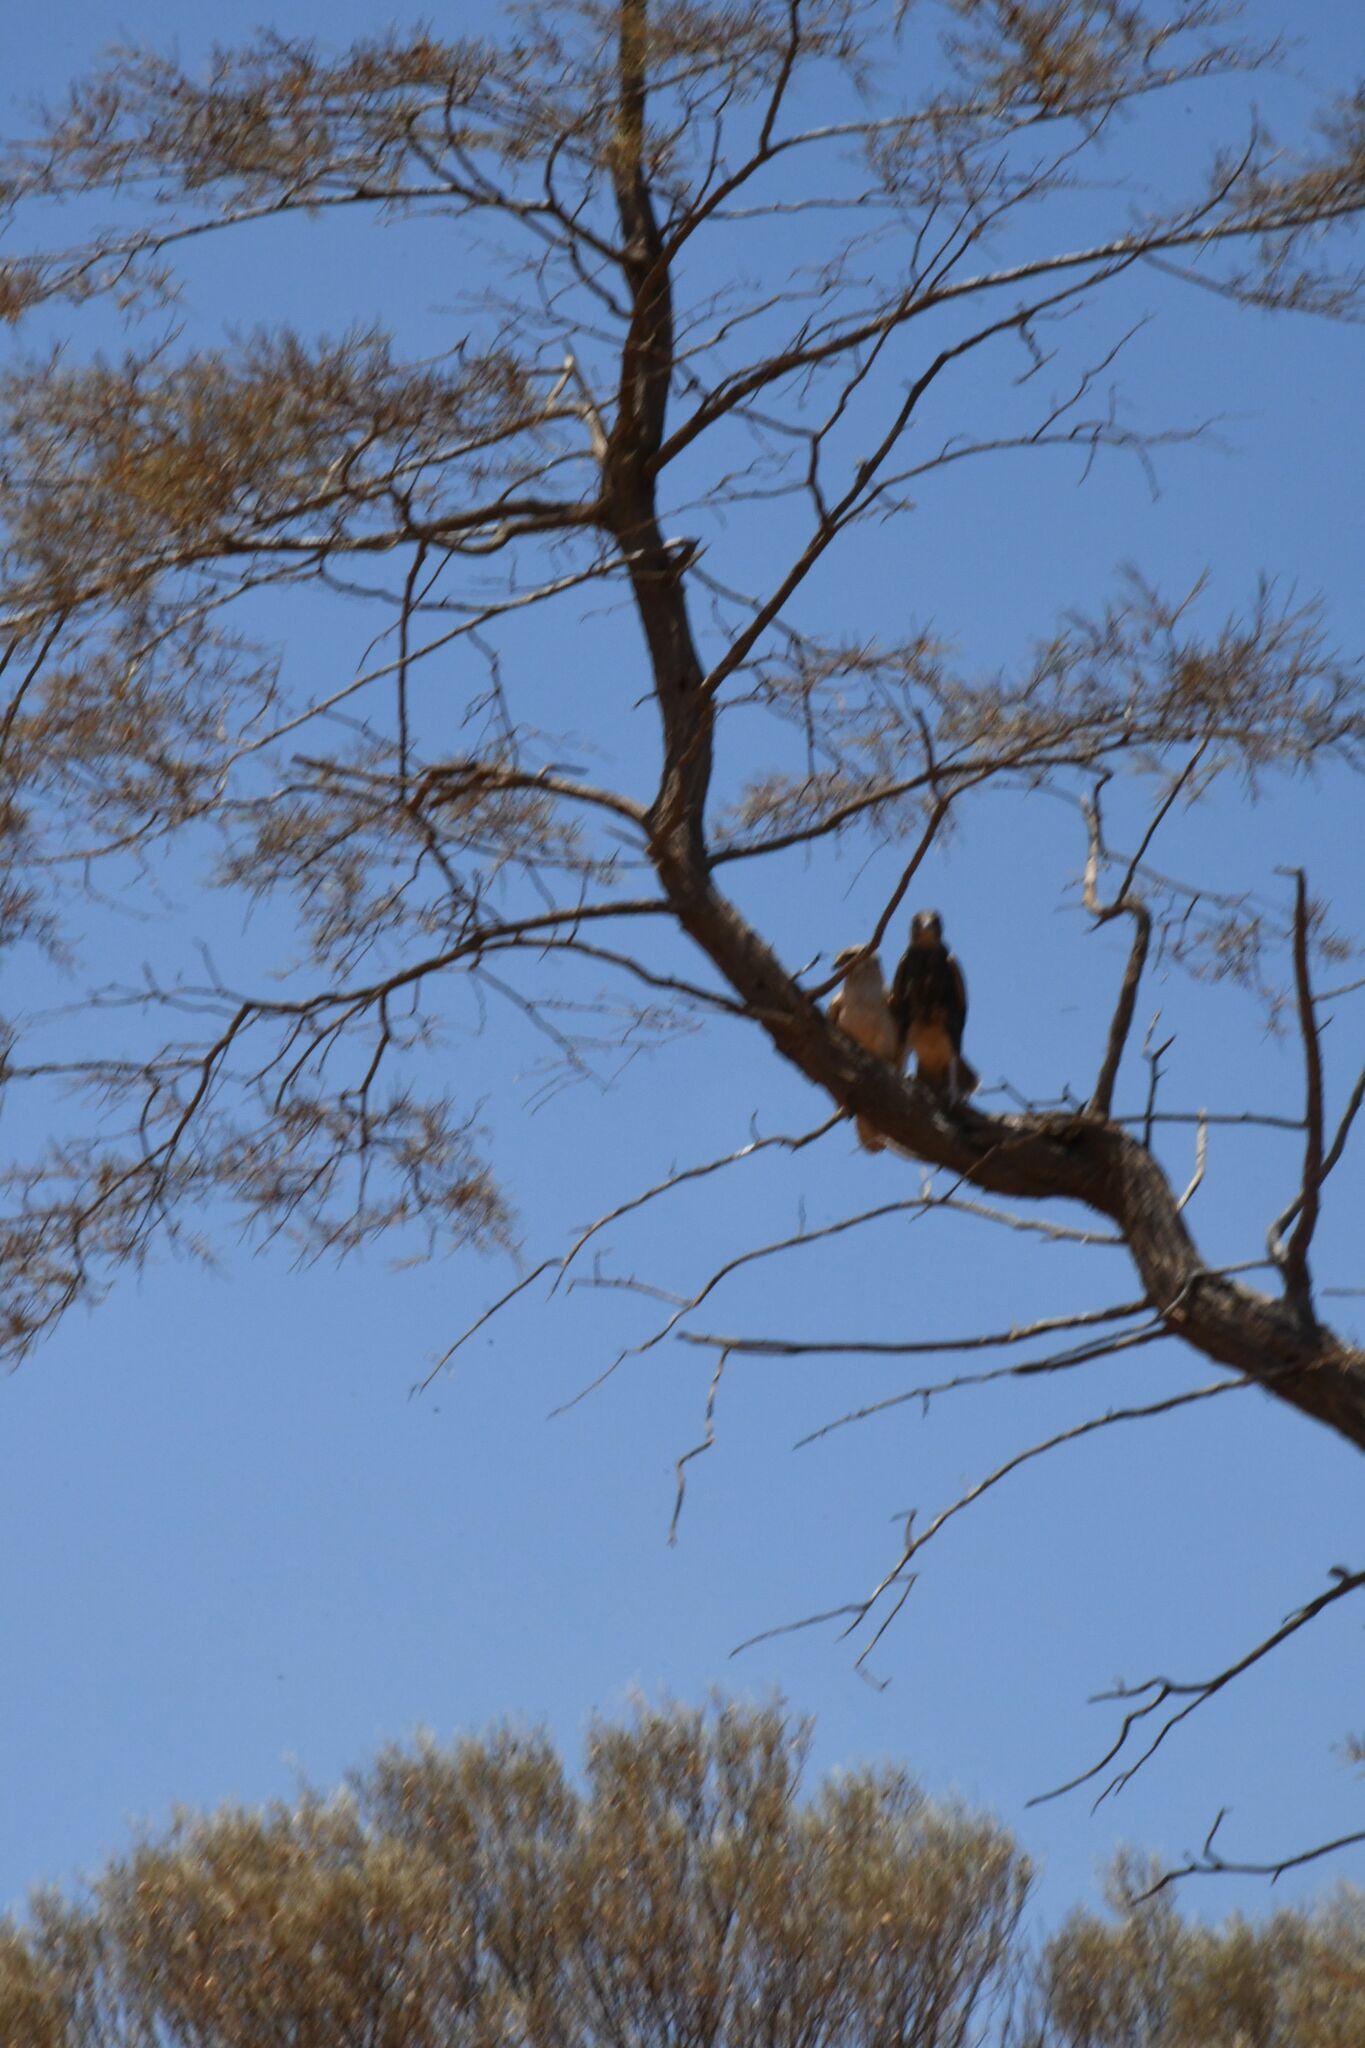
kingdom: Animalia
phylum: Chordata
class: Aves
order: Falconiformes
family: Falconidae
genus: Falco
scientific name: Falco berigora
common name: Brown falcon
